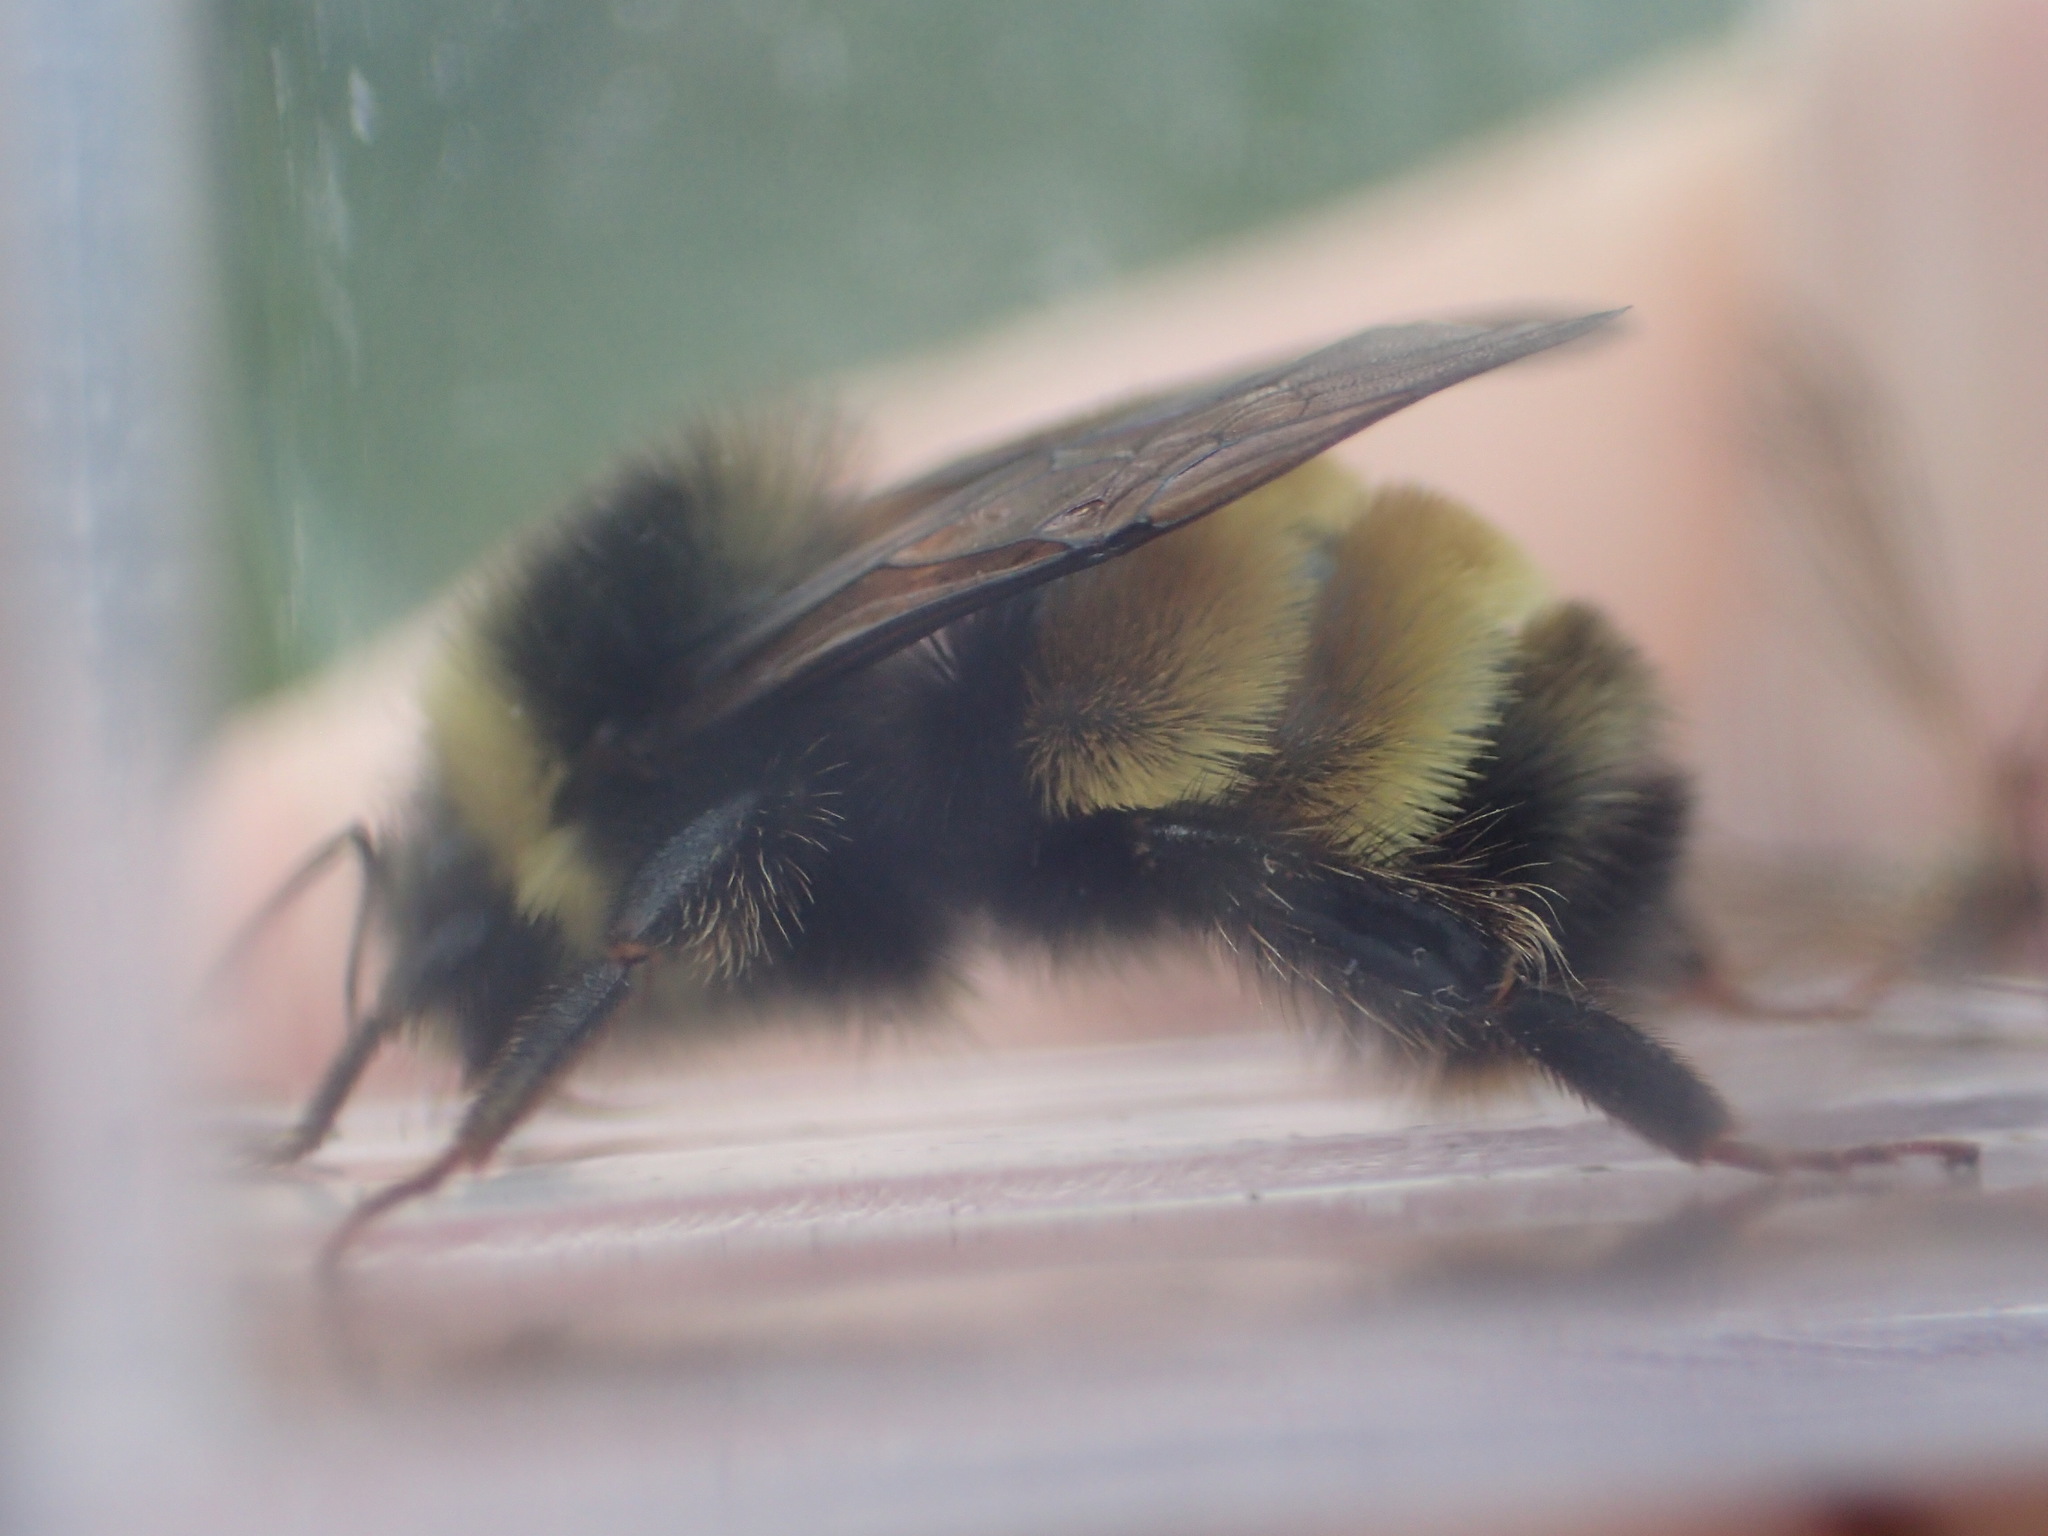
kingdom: Animalia
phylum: Arthropoda
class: Insecta
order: Hymenoptera
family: Apidae
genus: Bombus
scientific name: Bombus terricola
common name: Yellow-banded bumble bee
